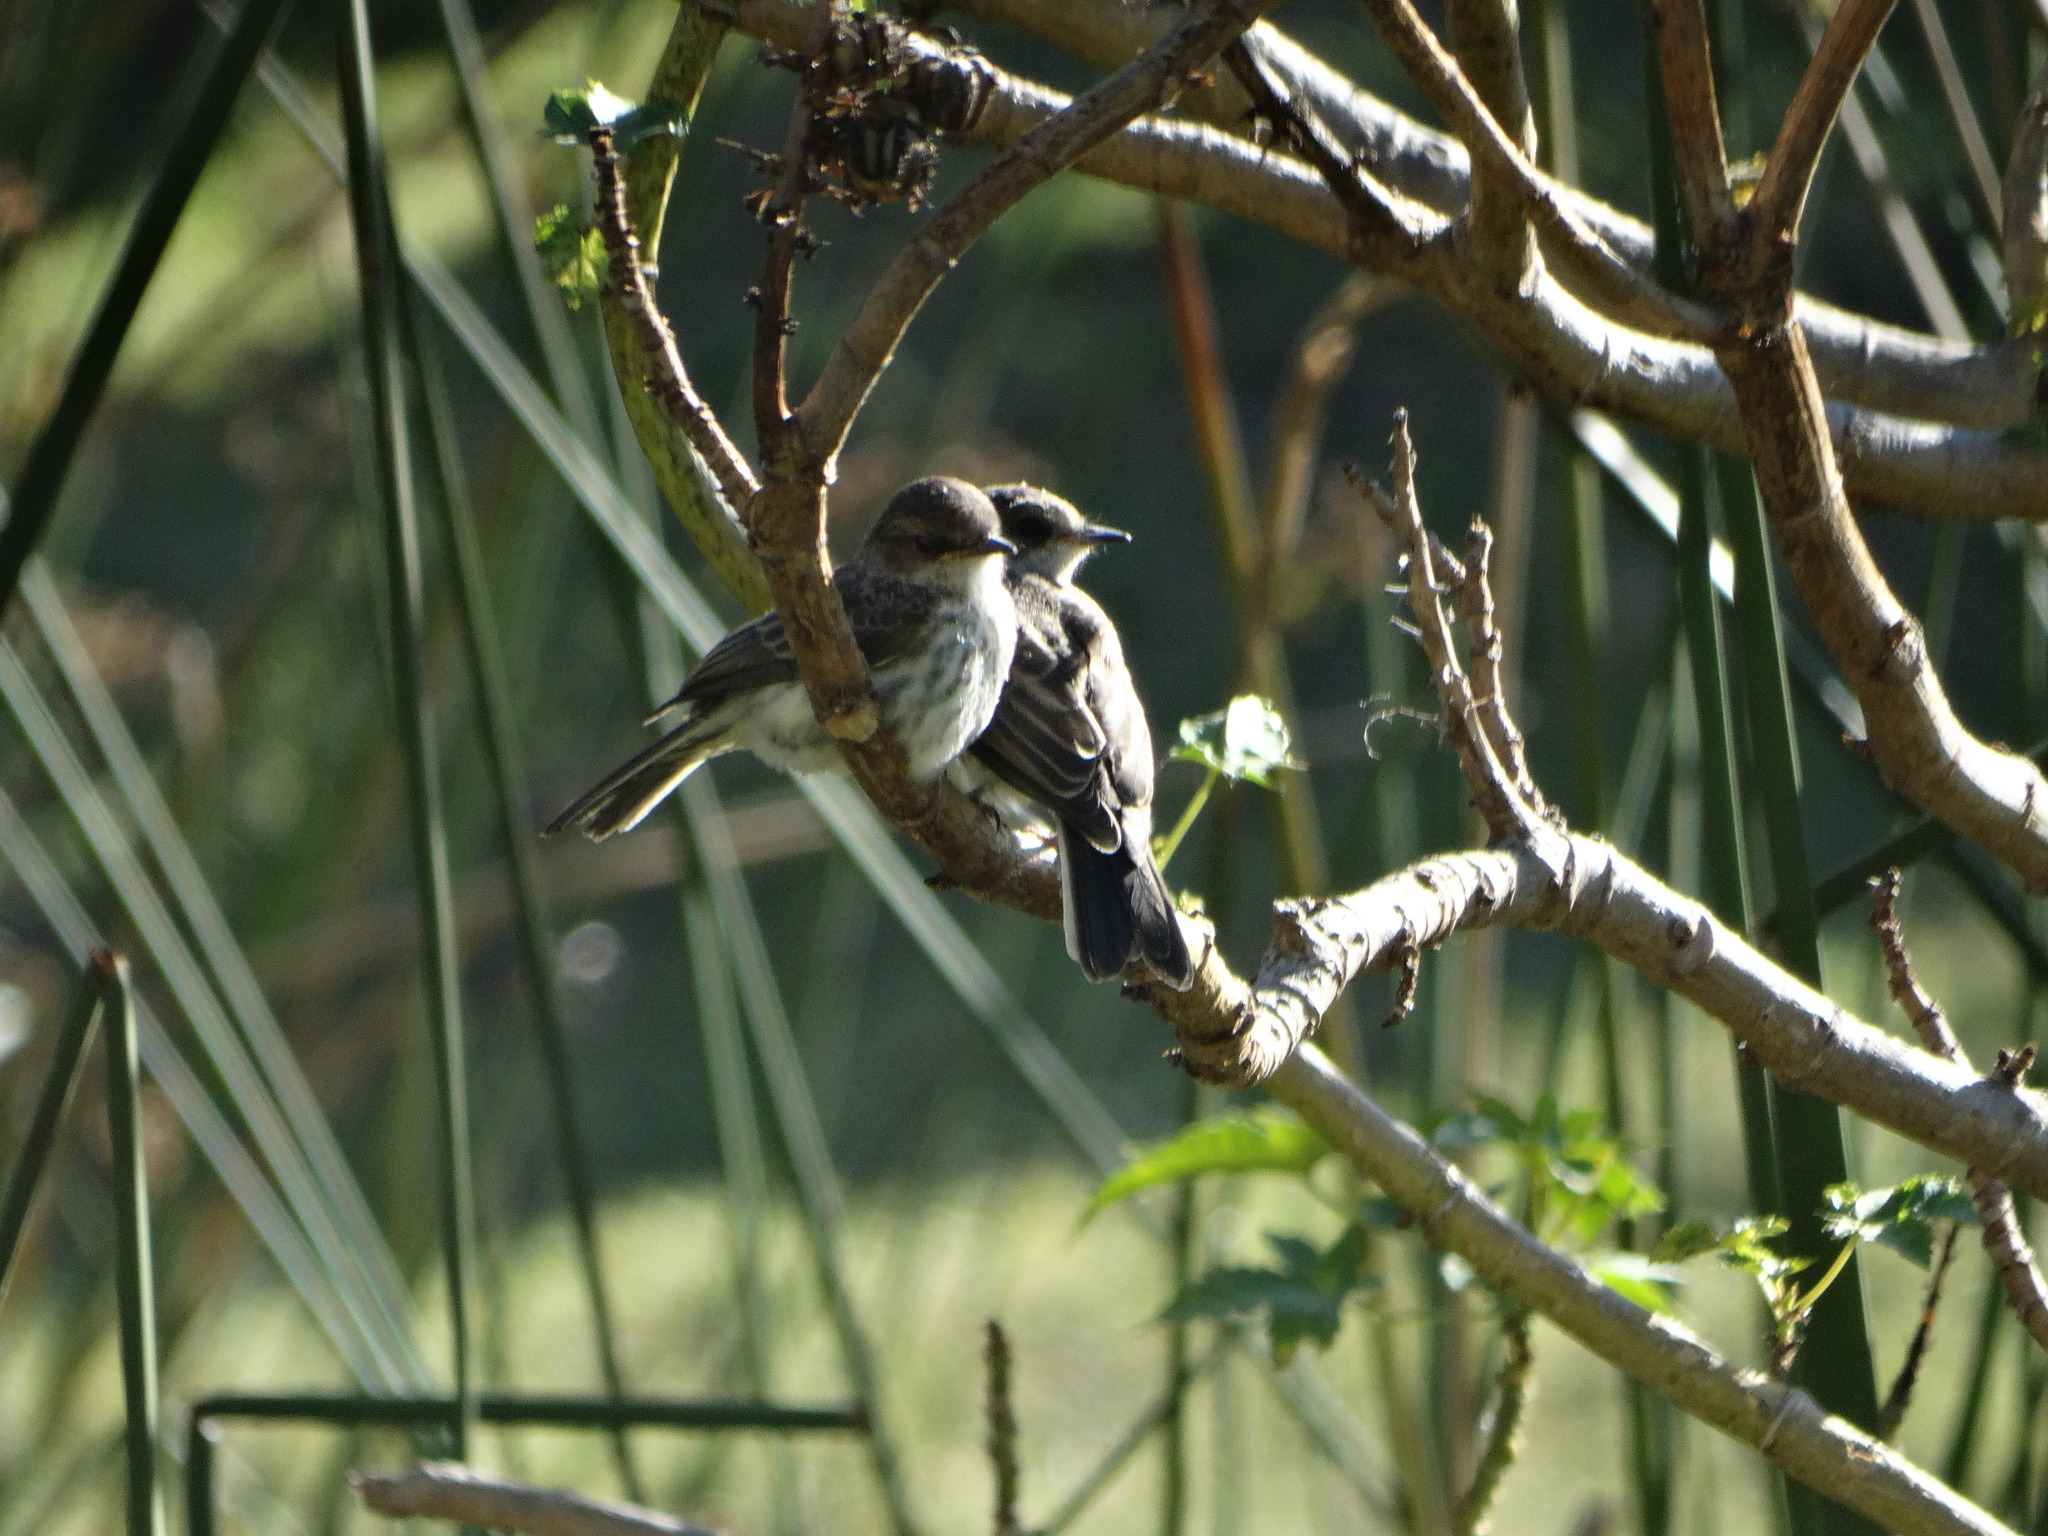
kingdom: Animalia
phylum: Chordata
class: Aves
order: Passeriformes
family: Tyrannidae
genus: Pyrocephalus
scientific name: Pyrocephalus rubinus
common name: Vermilion flycatcher
